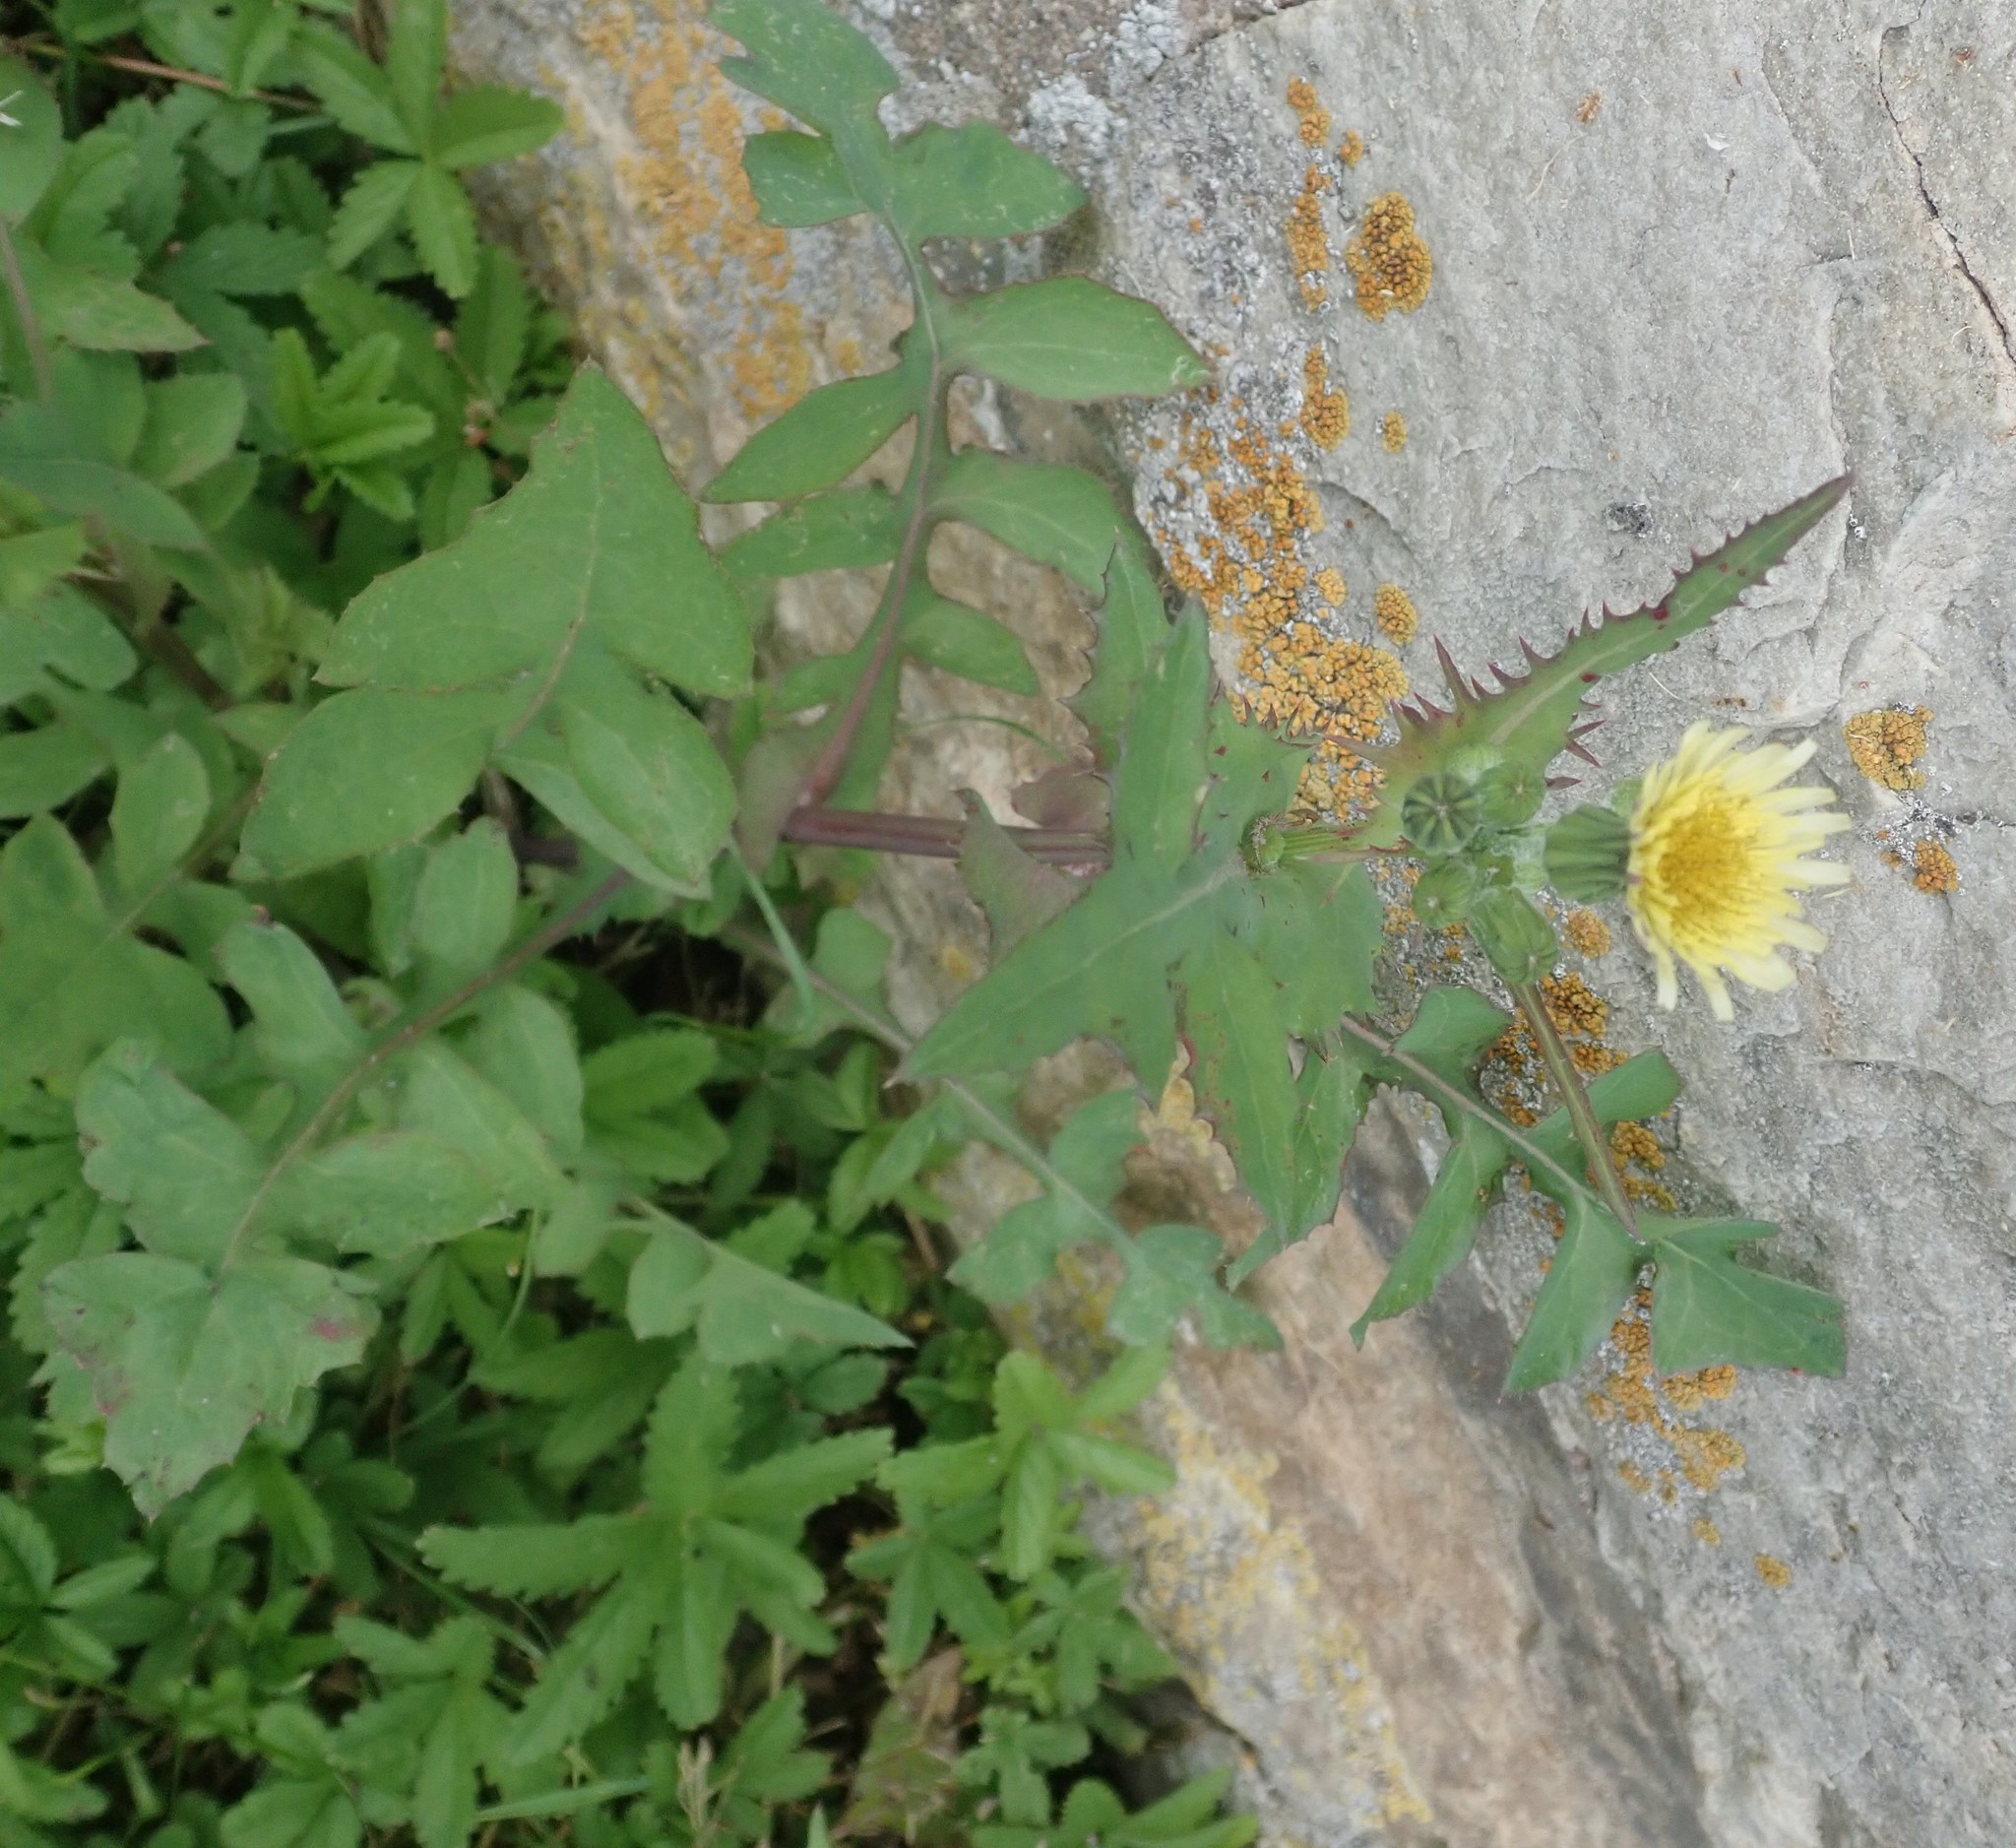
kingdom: Plantae
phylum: Tracheophyta
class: Magnoliopsida
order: Asterales
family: Asteraceae
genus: Sonchus
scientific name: Sonchus oleraceus
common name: Common sowthistle
